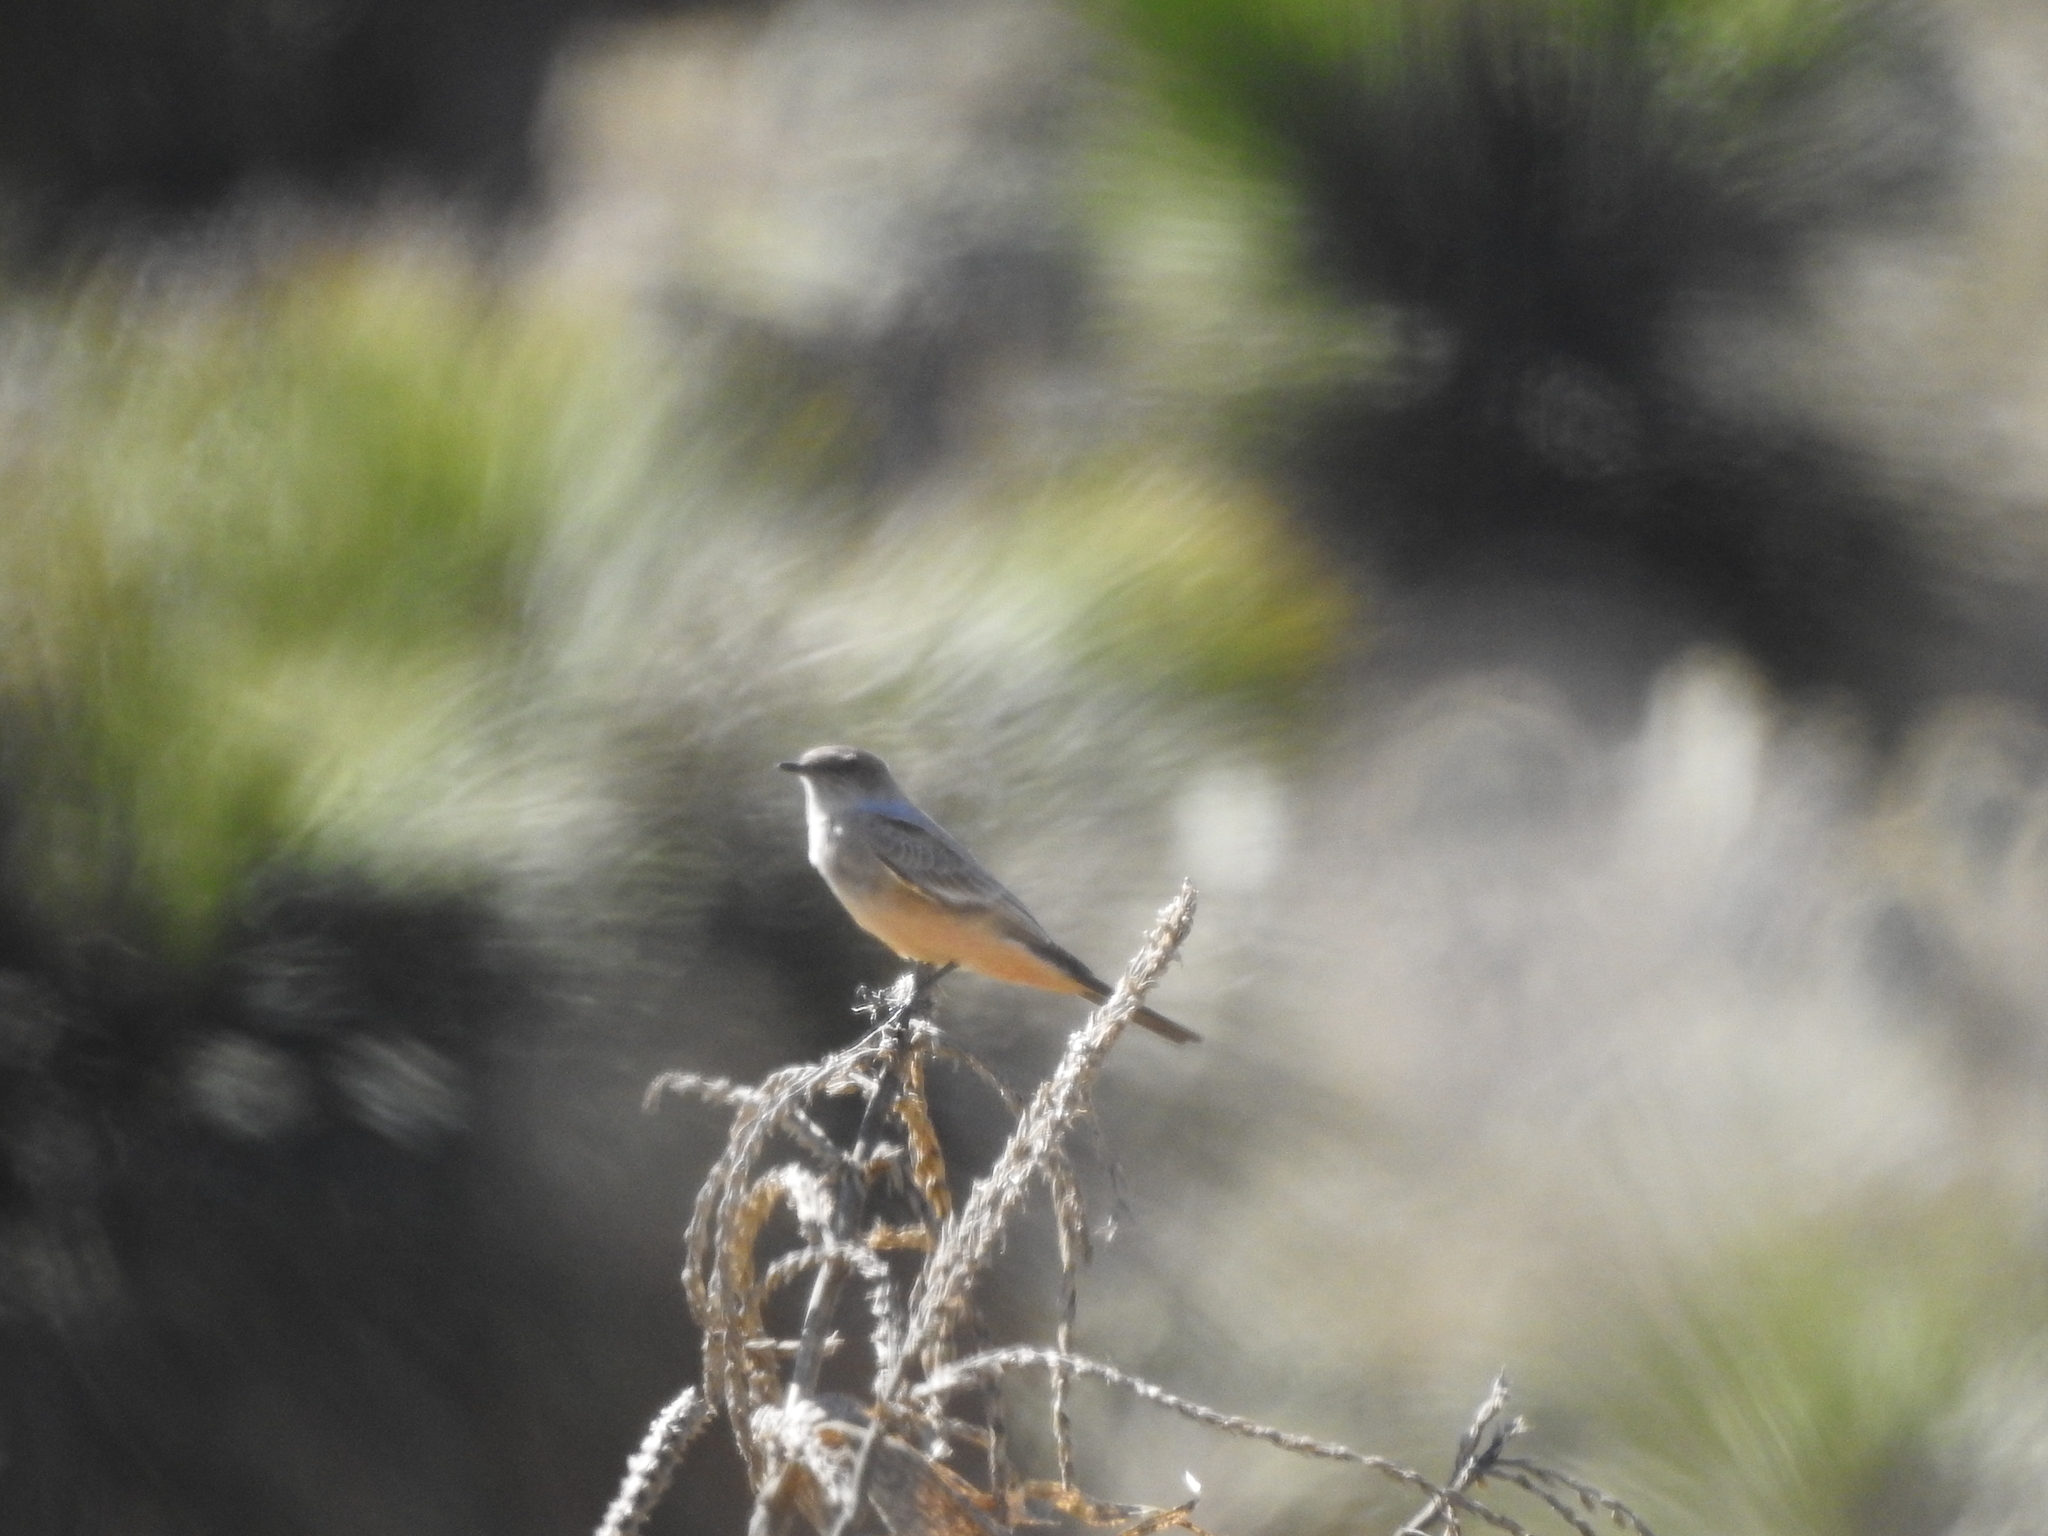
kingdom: Animalia
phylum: Chordata
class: Aves
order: Passeriformes
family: Tyrannidae
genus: Sayornis
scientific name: Sayornis saya
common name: Say's phoebe
